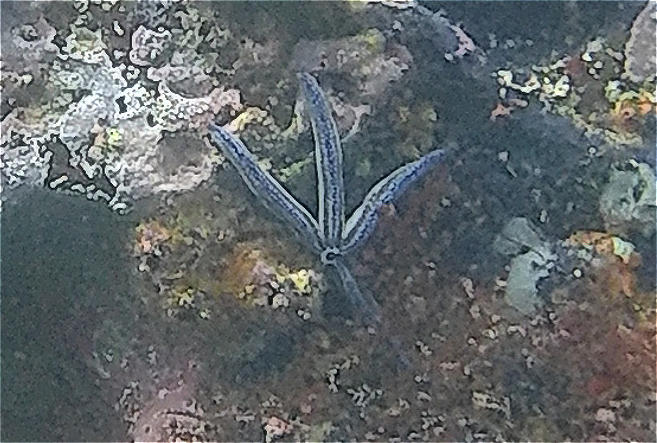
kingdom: Animalia
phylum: Echinodermata
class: Asteroidea
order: Valvatida
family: Ophidiasteridae
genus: Phataria
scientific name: Phataria unifascialis
